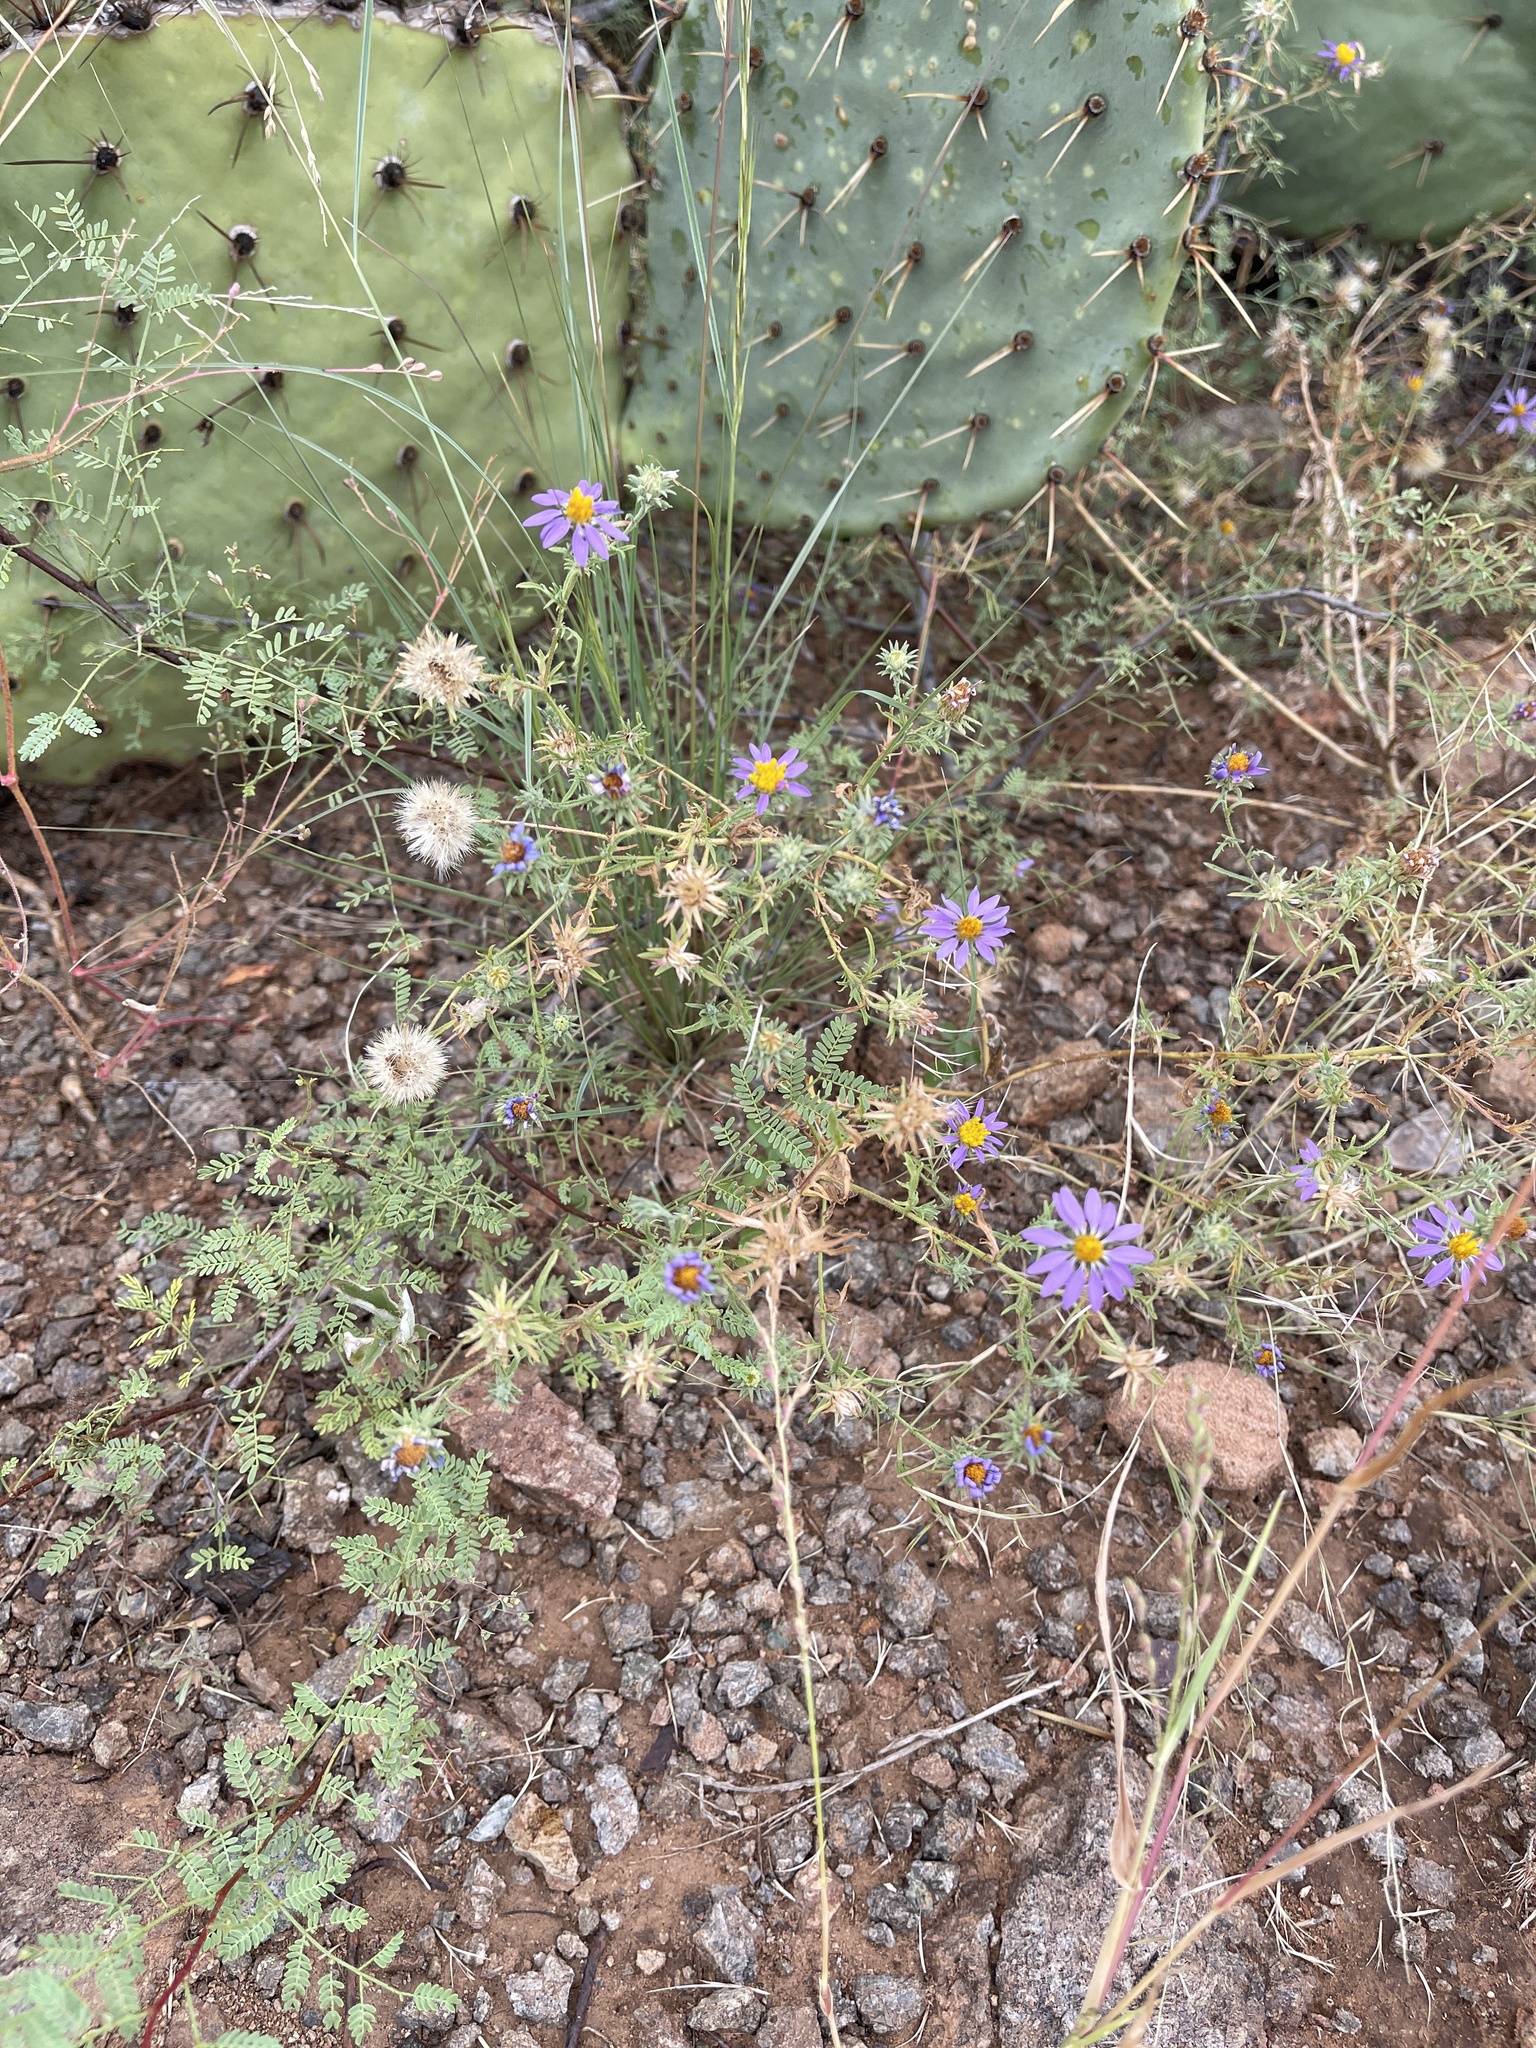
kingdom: Plantae
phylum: Tracheophyta
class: Magnoliopsida
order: Asterales
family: Asteraceae
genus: Machaeranthera
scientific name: Machaeranthera tanacetifolia
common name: Tansy-aster
